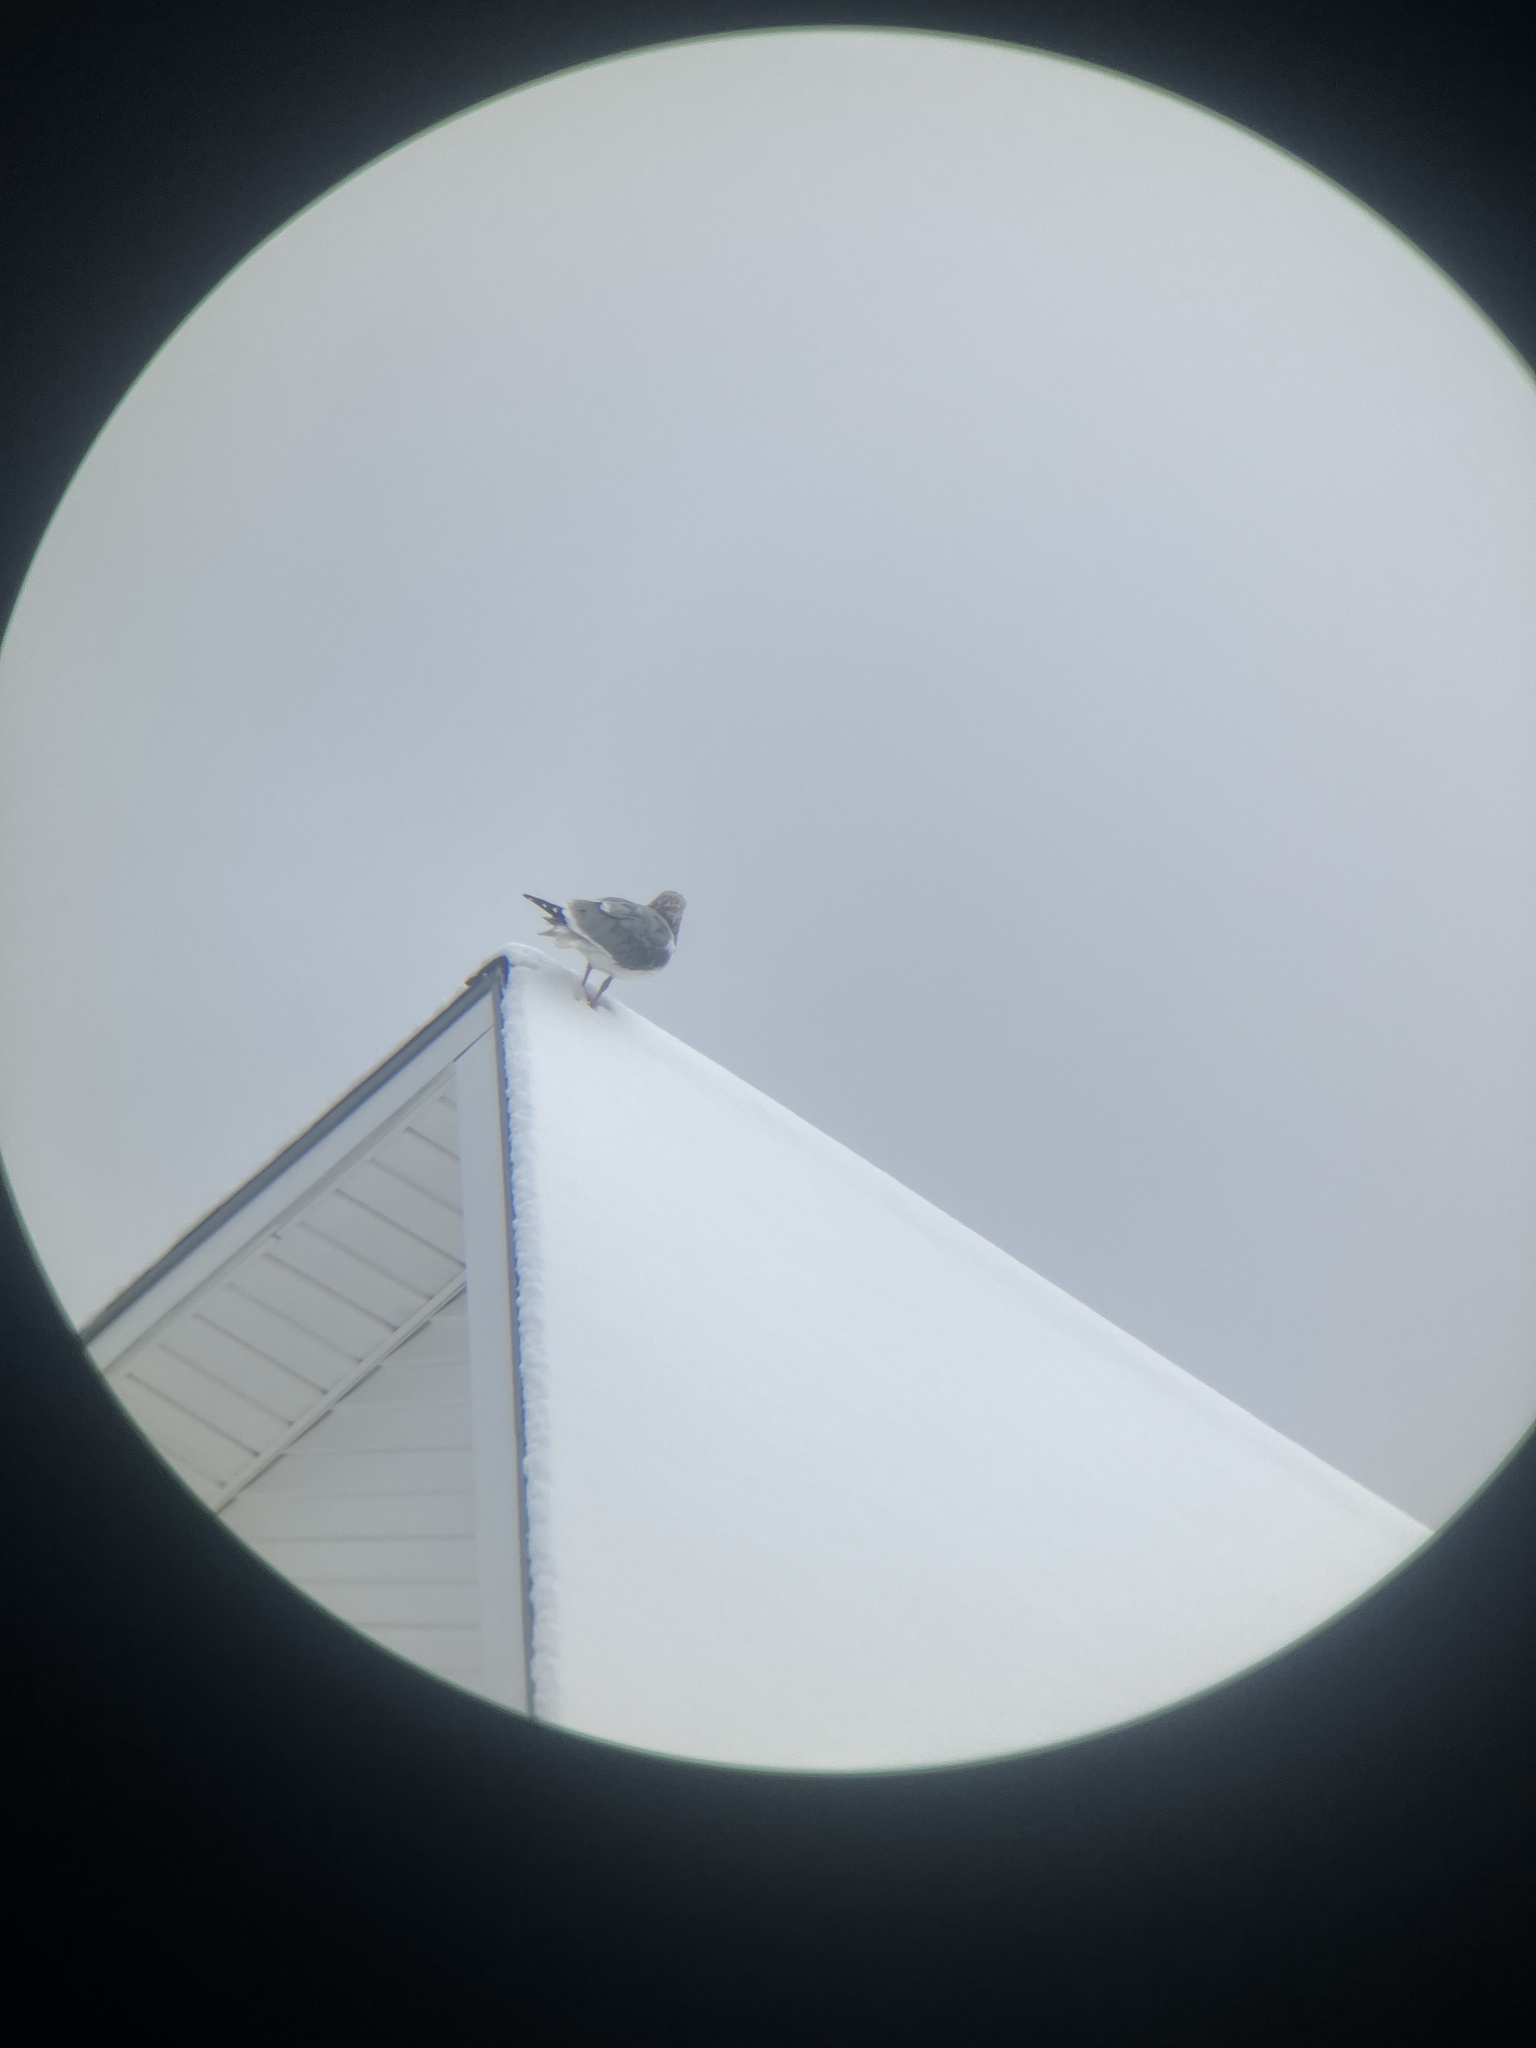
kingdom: Animalia
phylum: Chordata
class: Aves
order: Charadriiformes
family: Laridae
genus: Larus
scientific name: Larus argentatus
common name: Herring gull
